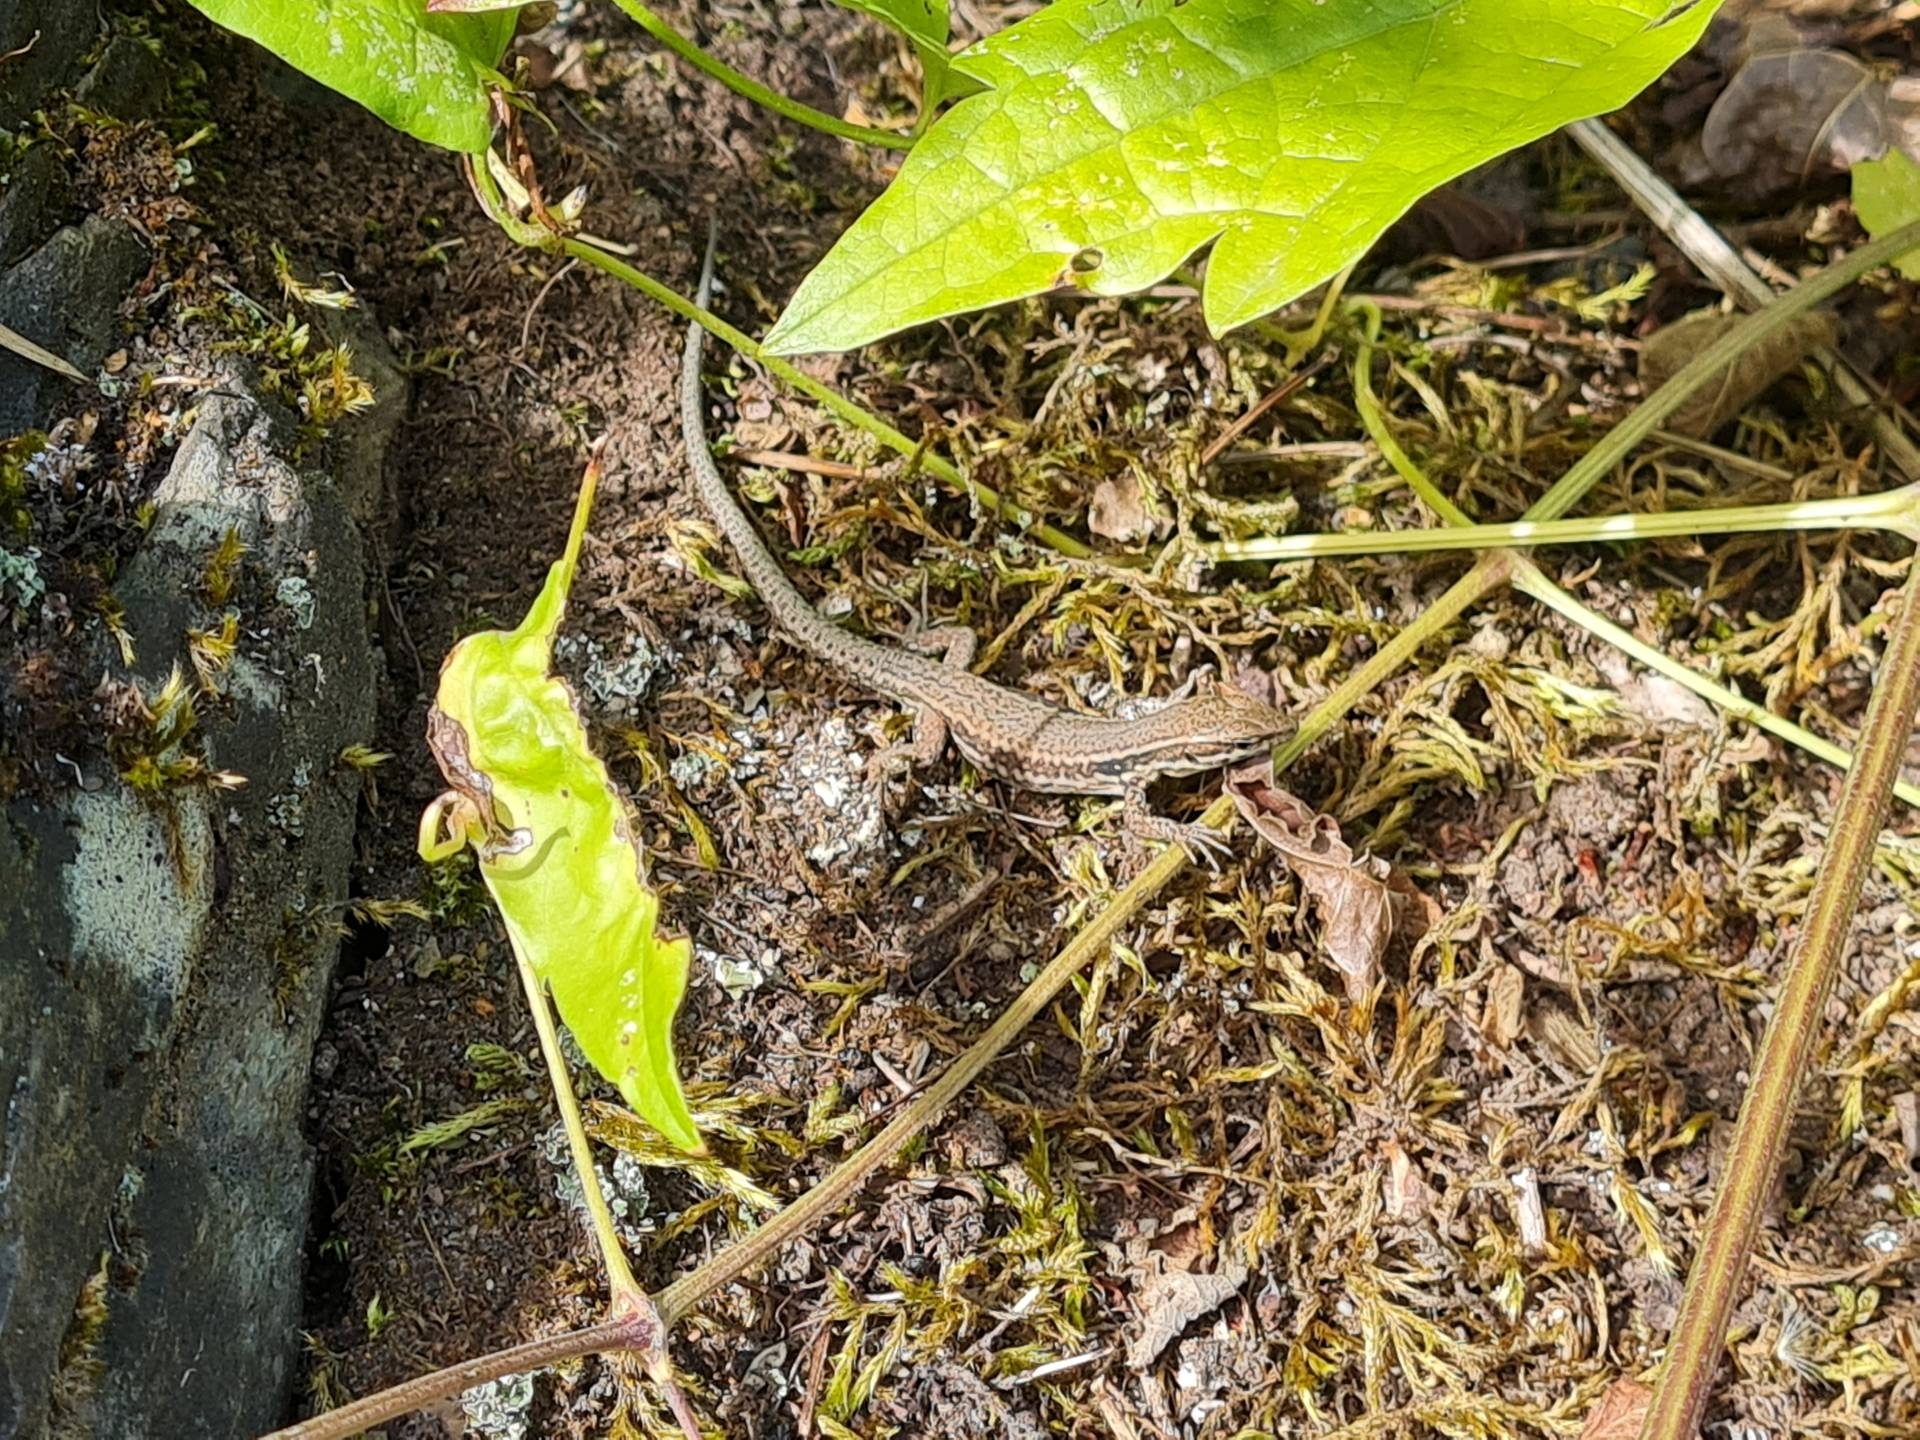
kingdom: Animalia
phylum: Chordata
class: Squamata
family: Lacertidae
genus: Podarcis
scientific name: Podarcis muralis
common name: Common wall lizard
